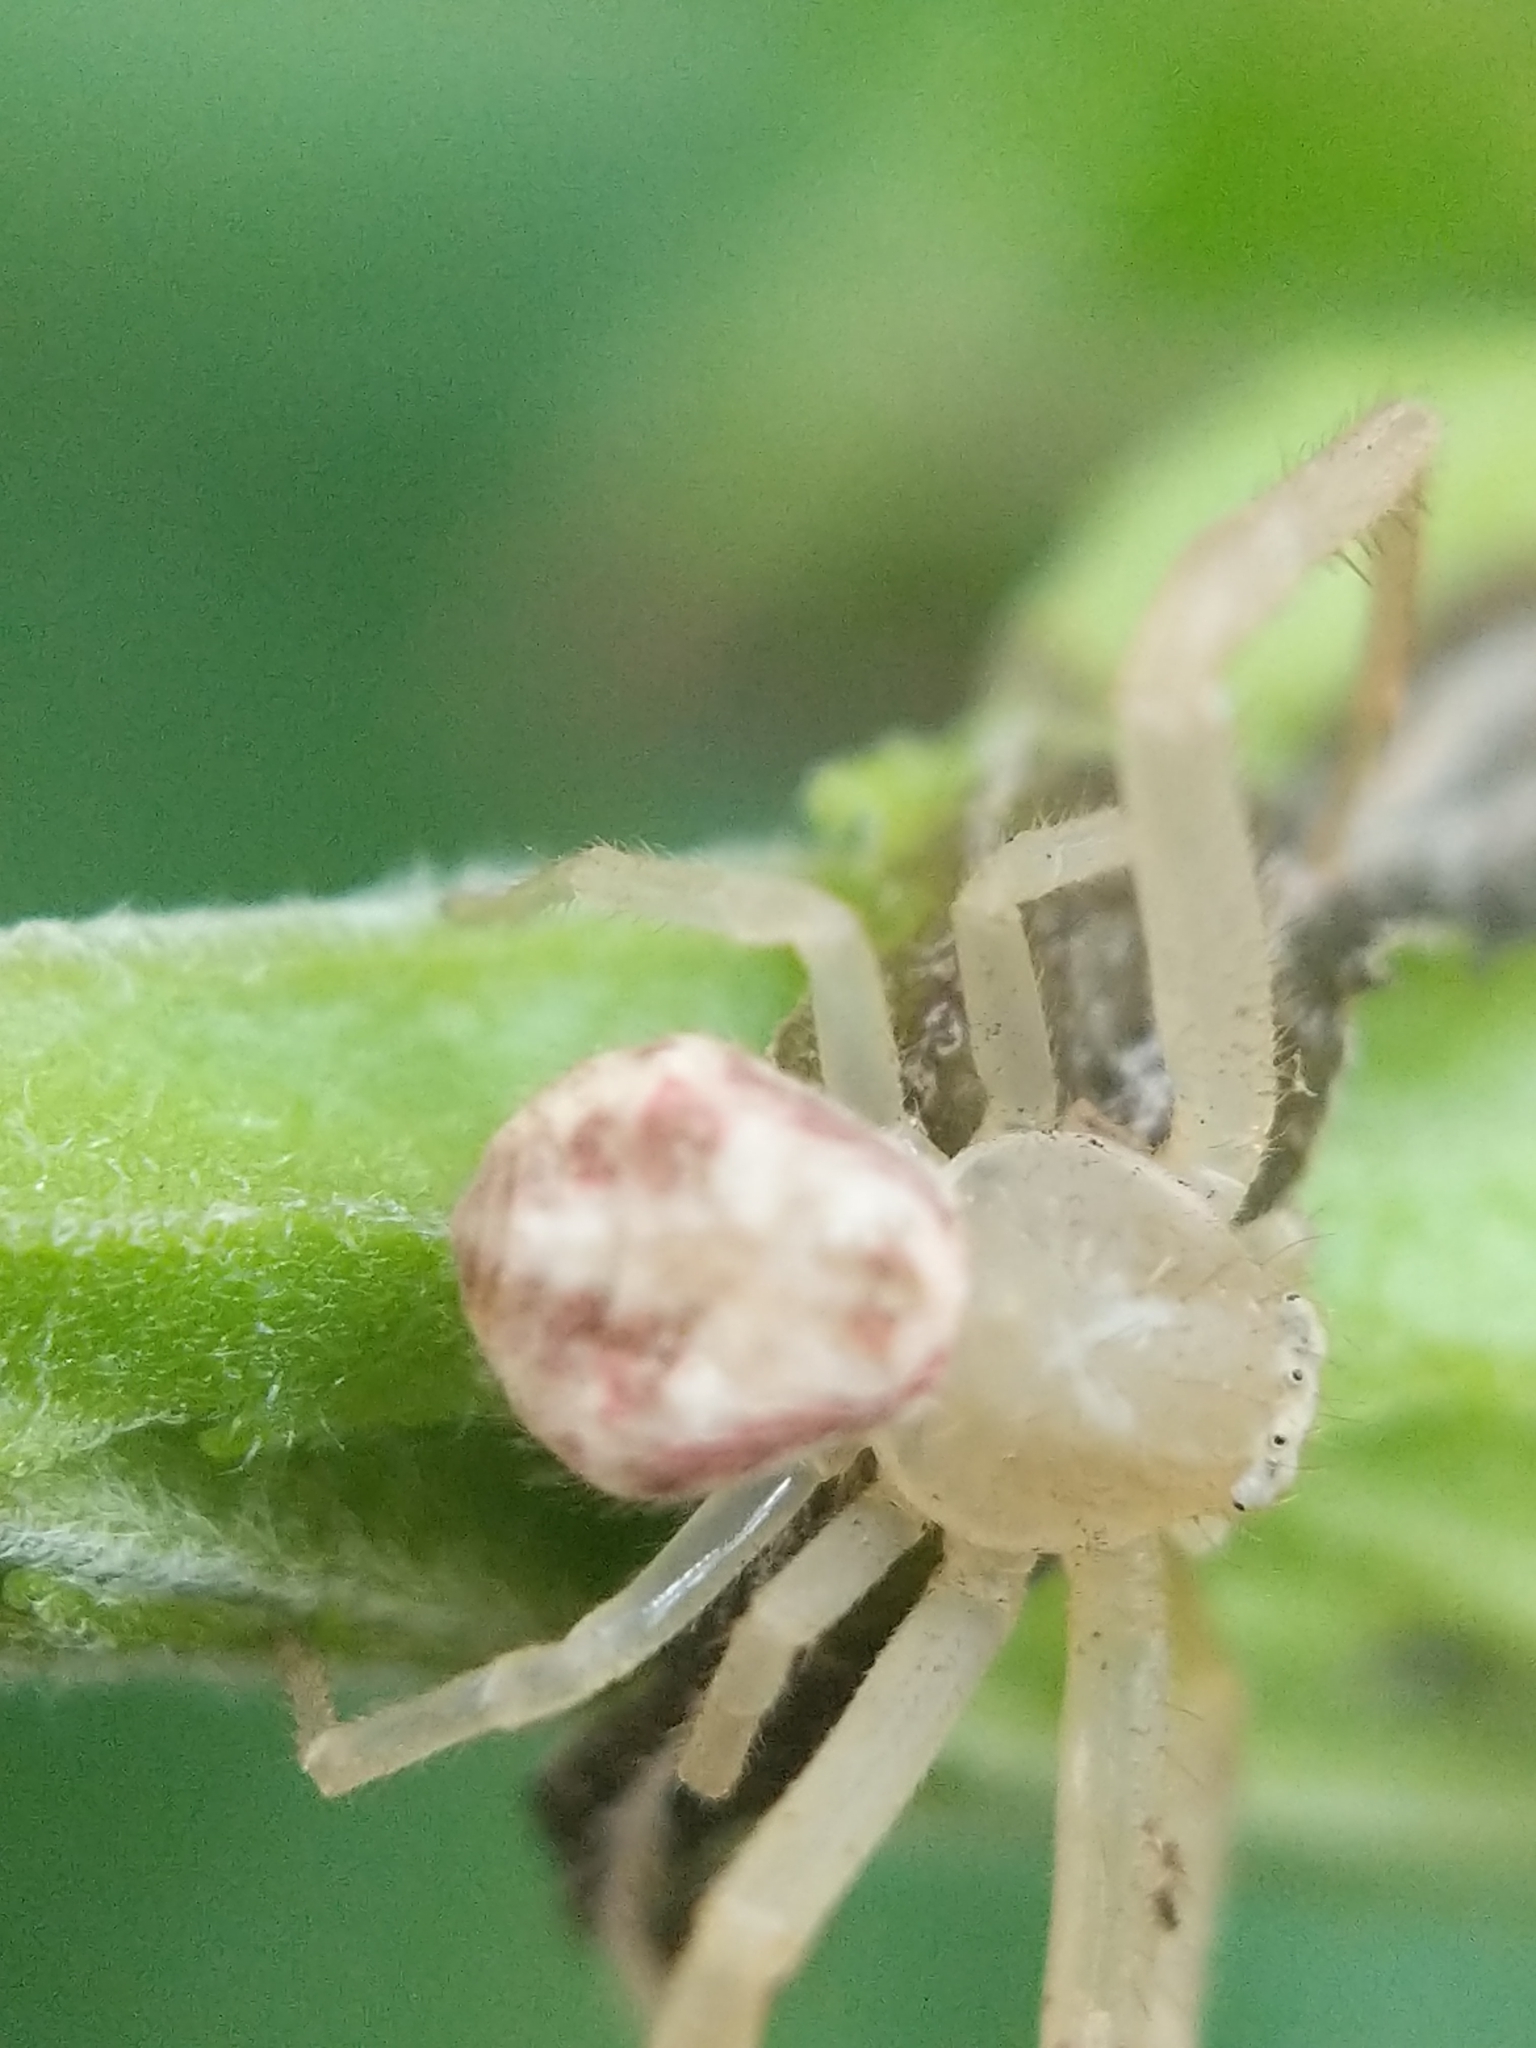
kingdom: Animalia
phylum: Arthropoda
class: Arachnida
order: Araneae
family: Thomisidae
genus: Mecaphesa
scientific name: Mecaphesa asperata
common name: Crab spiders
